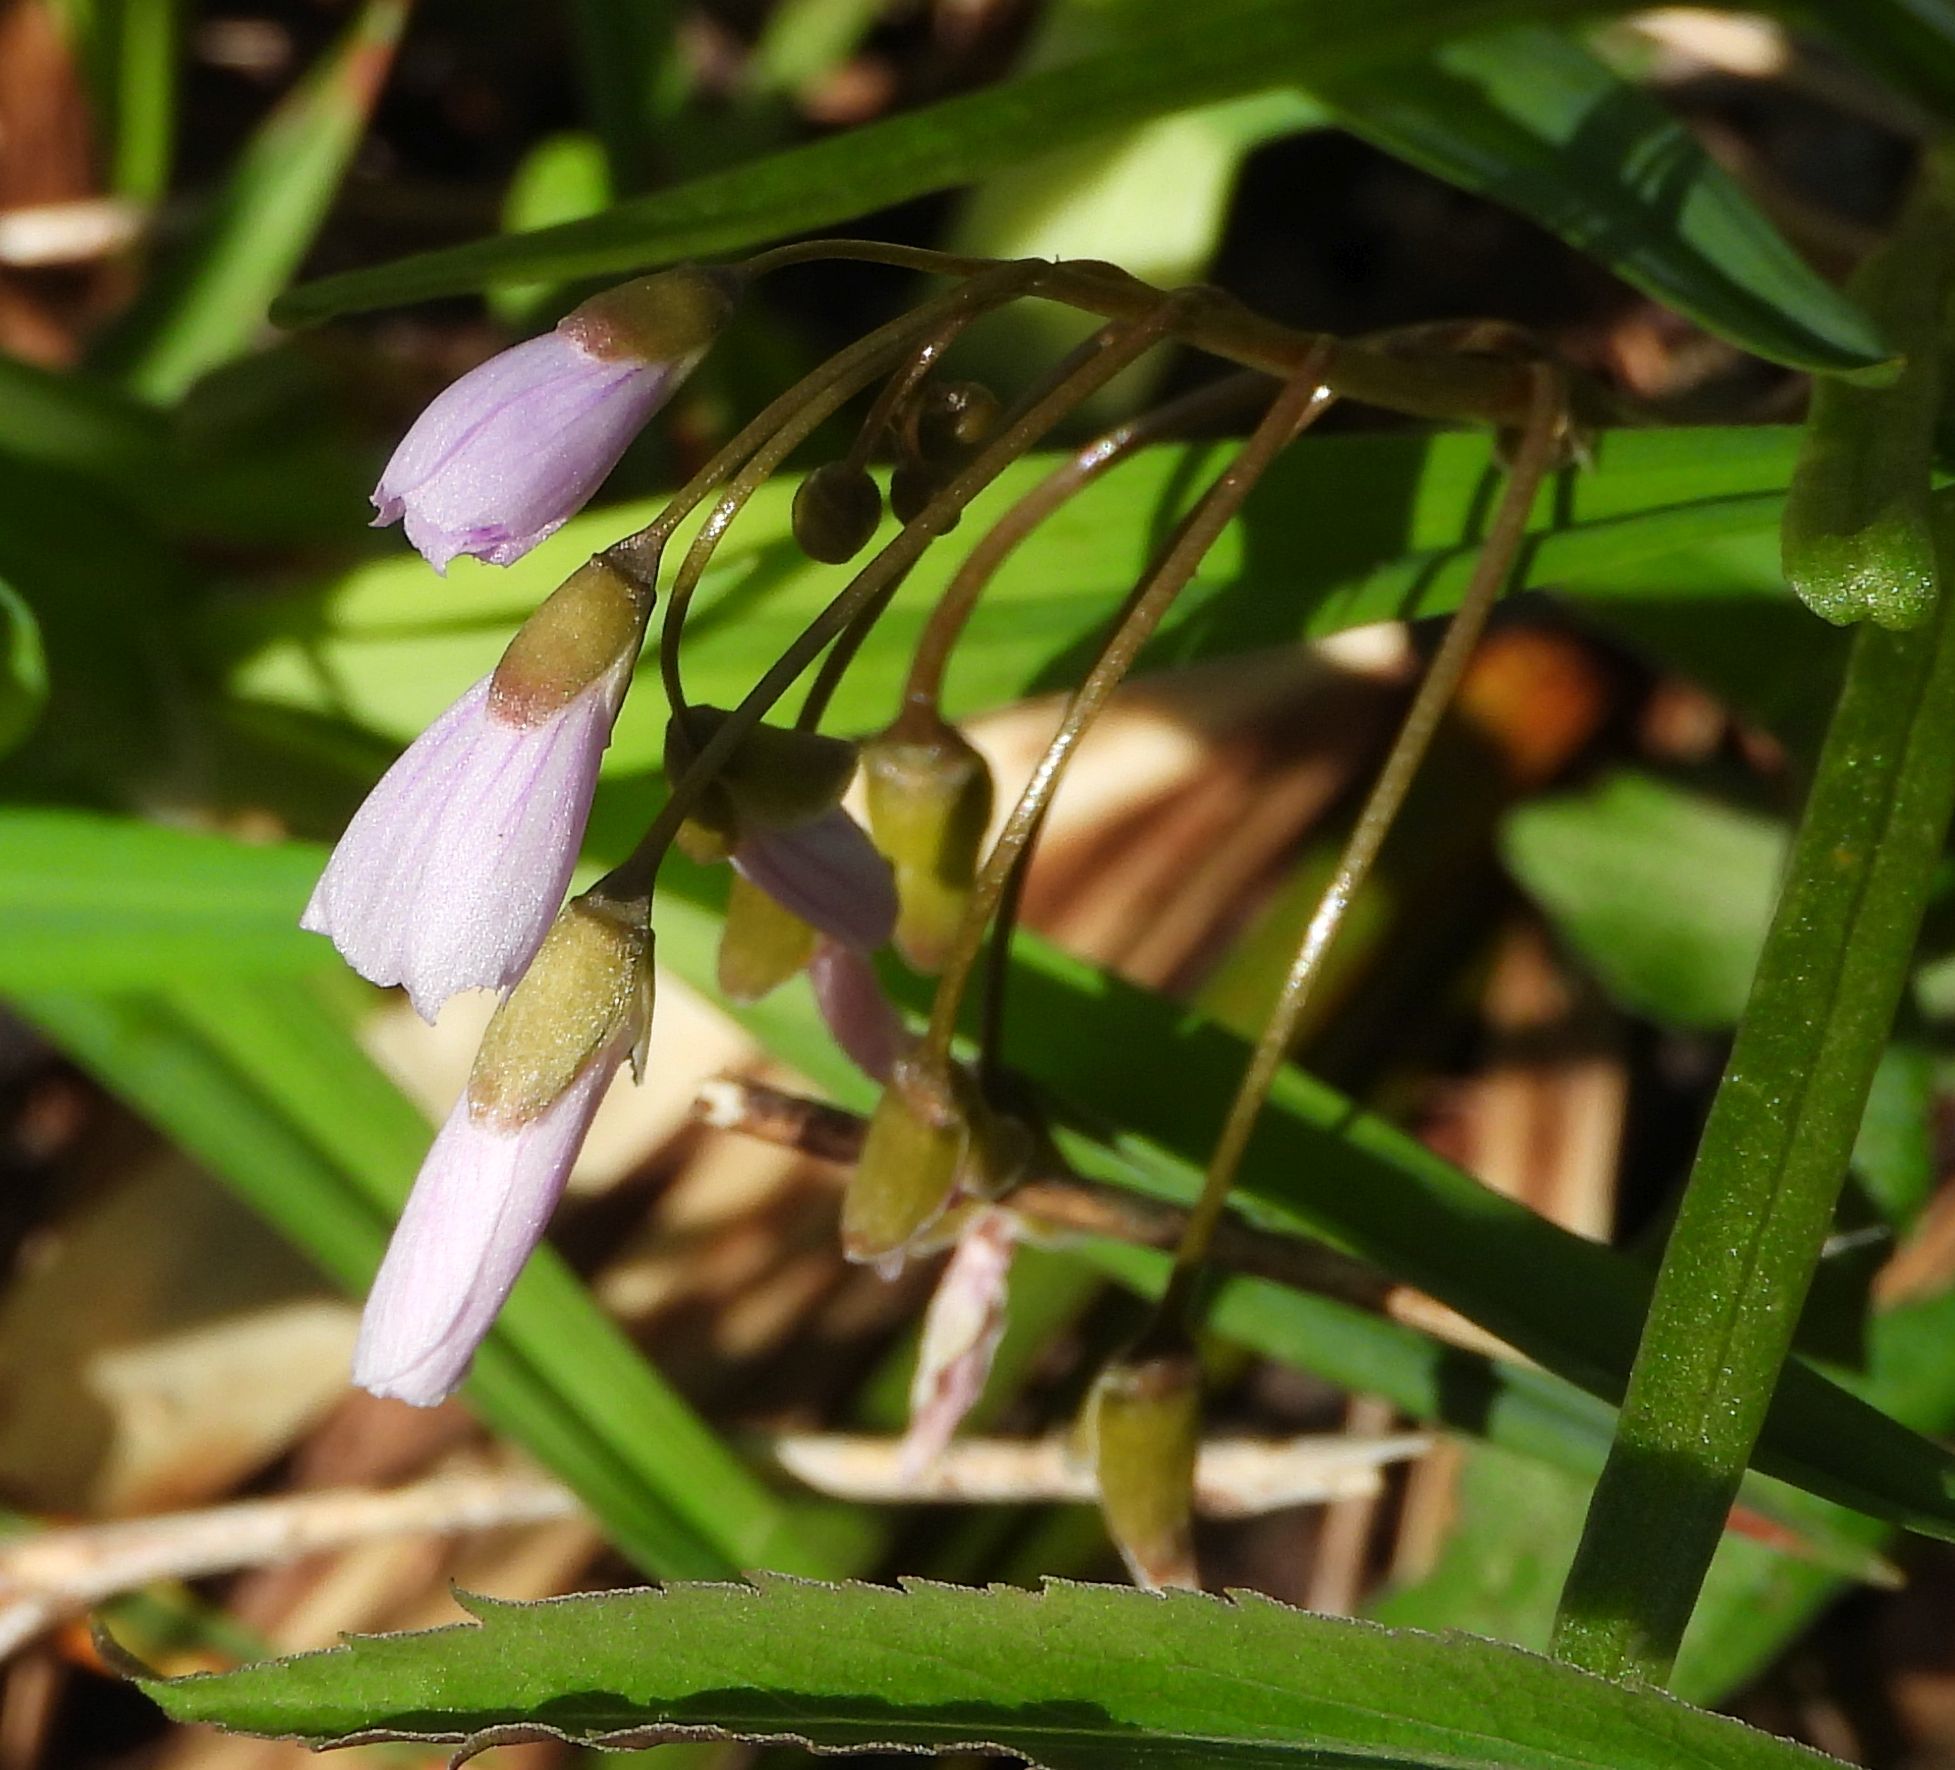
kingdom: Plantae
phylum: Tracheophyta
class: Magnoliopsida
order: Caryophyllales
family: Montiaceae
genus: Claytonia
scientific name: Claytonia virginica
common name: Virginia springbeauty
